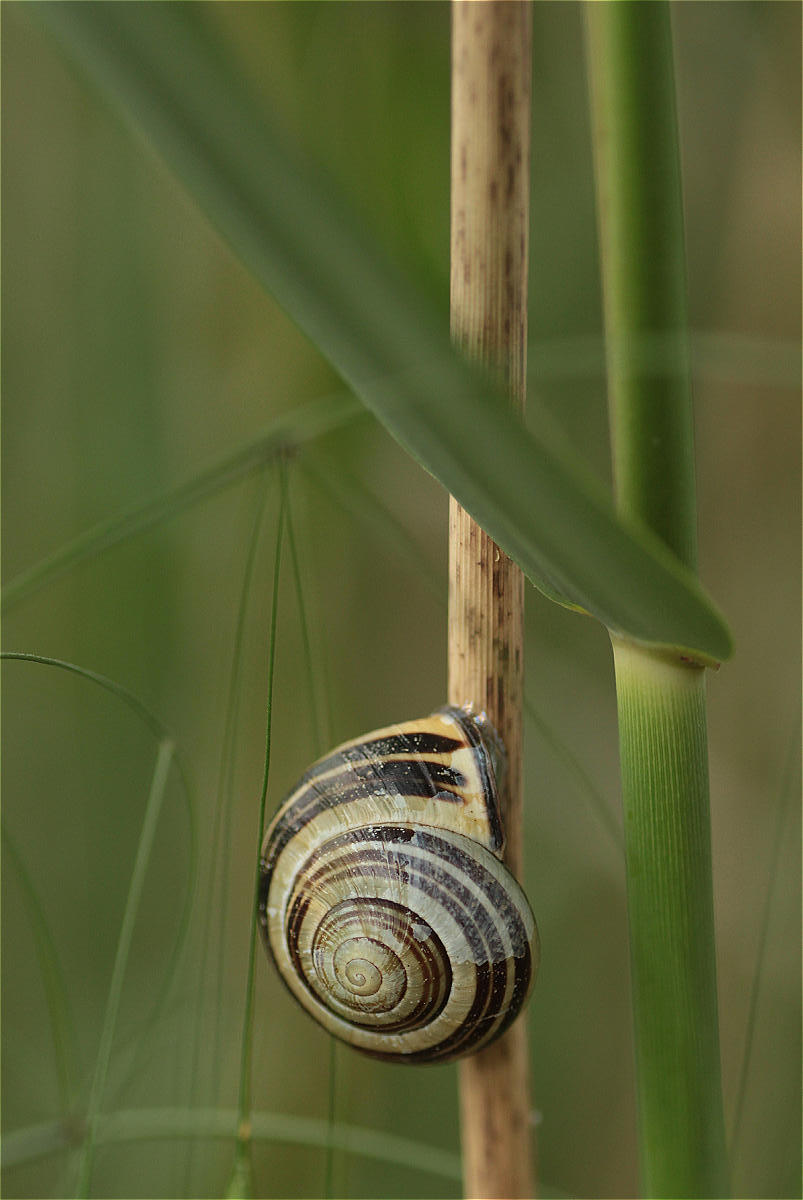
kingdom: Animalia
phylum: Mollusca
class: Gastropoda
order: Stylommatophora
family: Helicidae
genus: Cepaea
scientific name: Cepaea nemoralis
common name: Grovesnail
